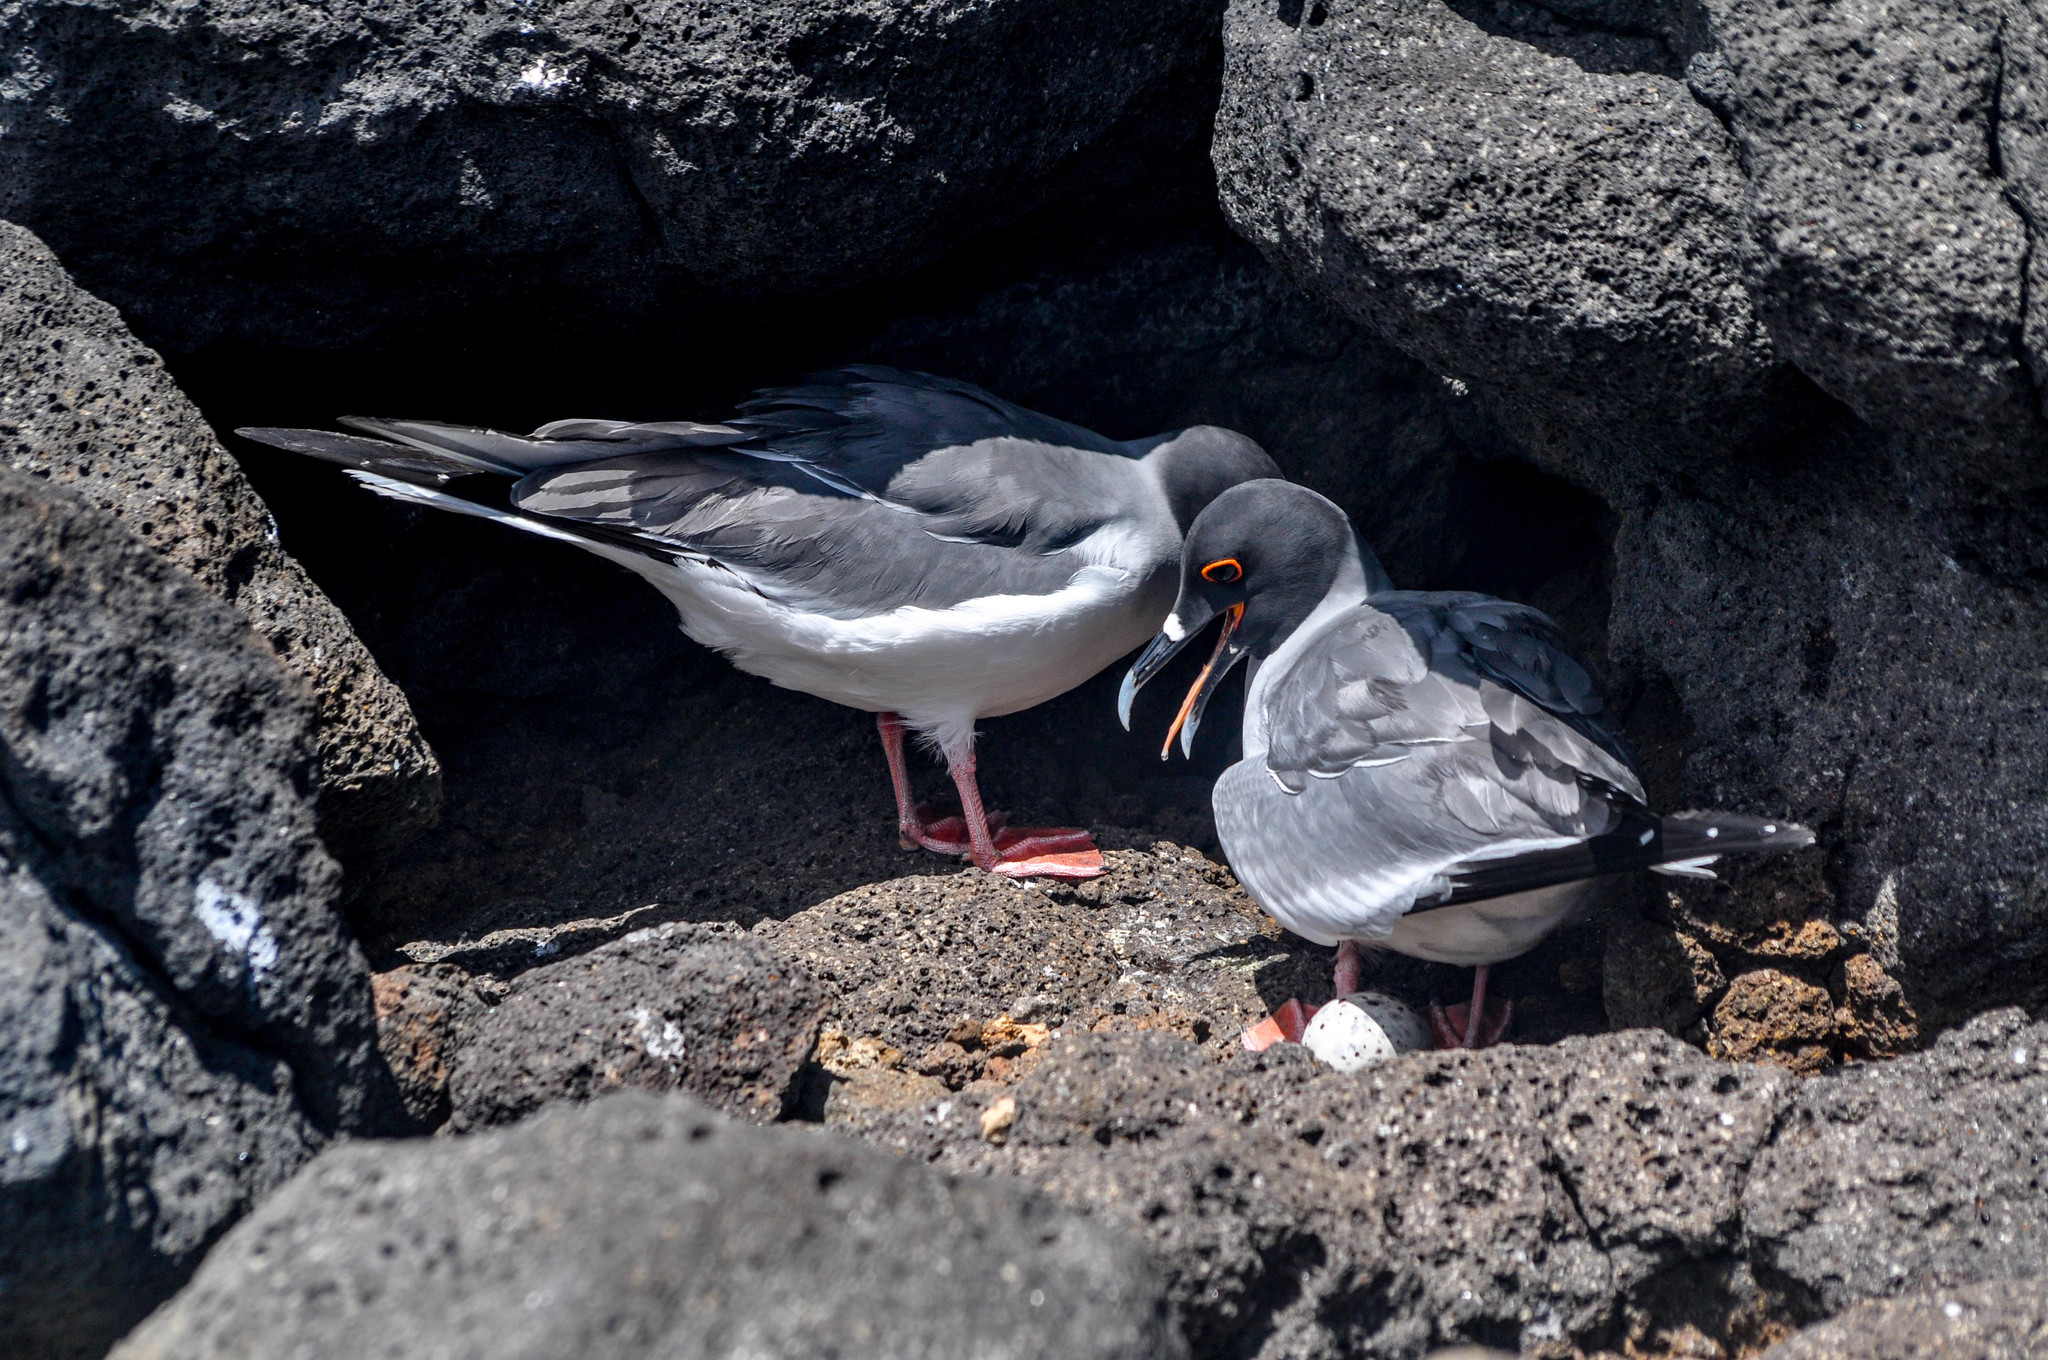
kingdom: Animalia
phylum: Chordata
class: Aves
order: Charadriiformes
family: Laridae
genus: Creagrus
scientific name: Creagrus furcatus
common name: Swallow-tailed gull
